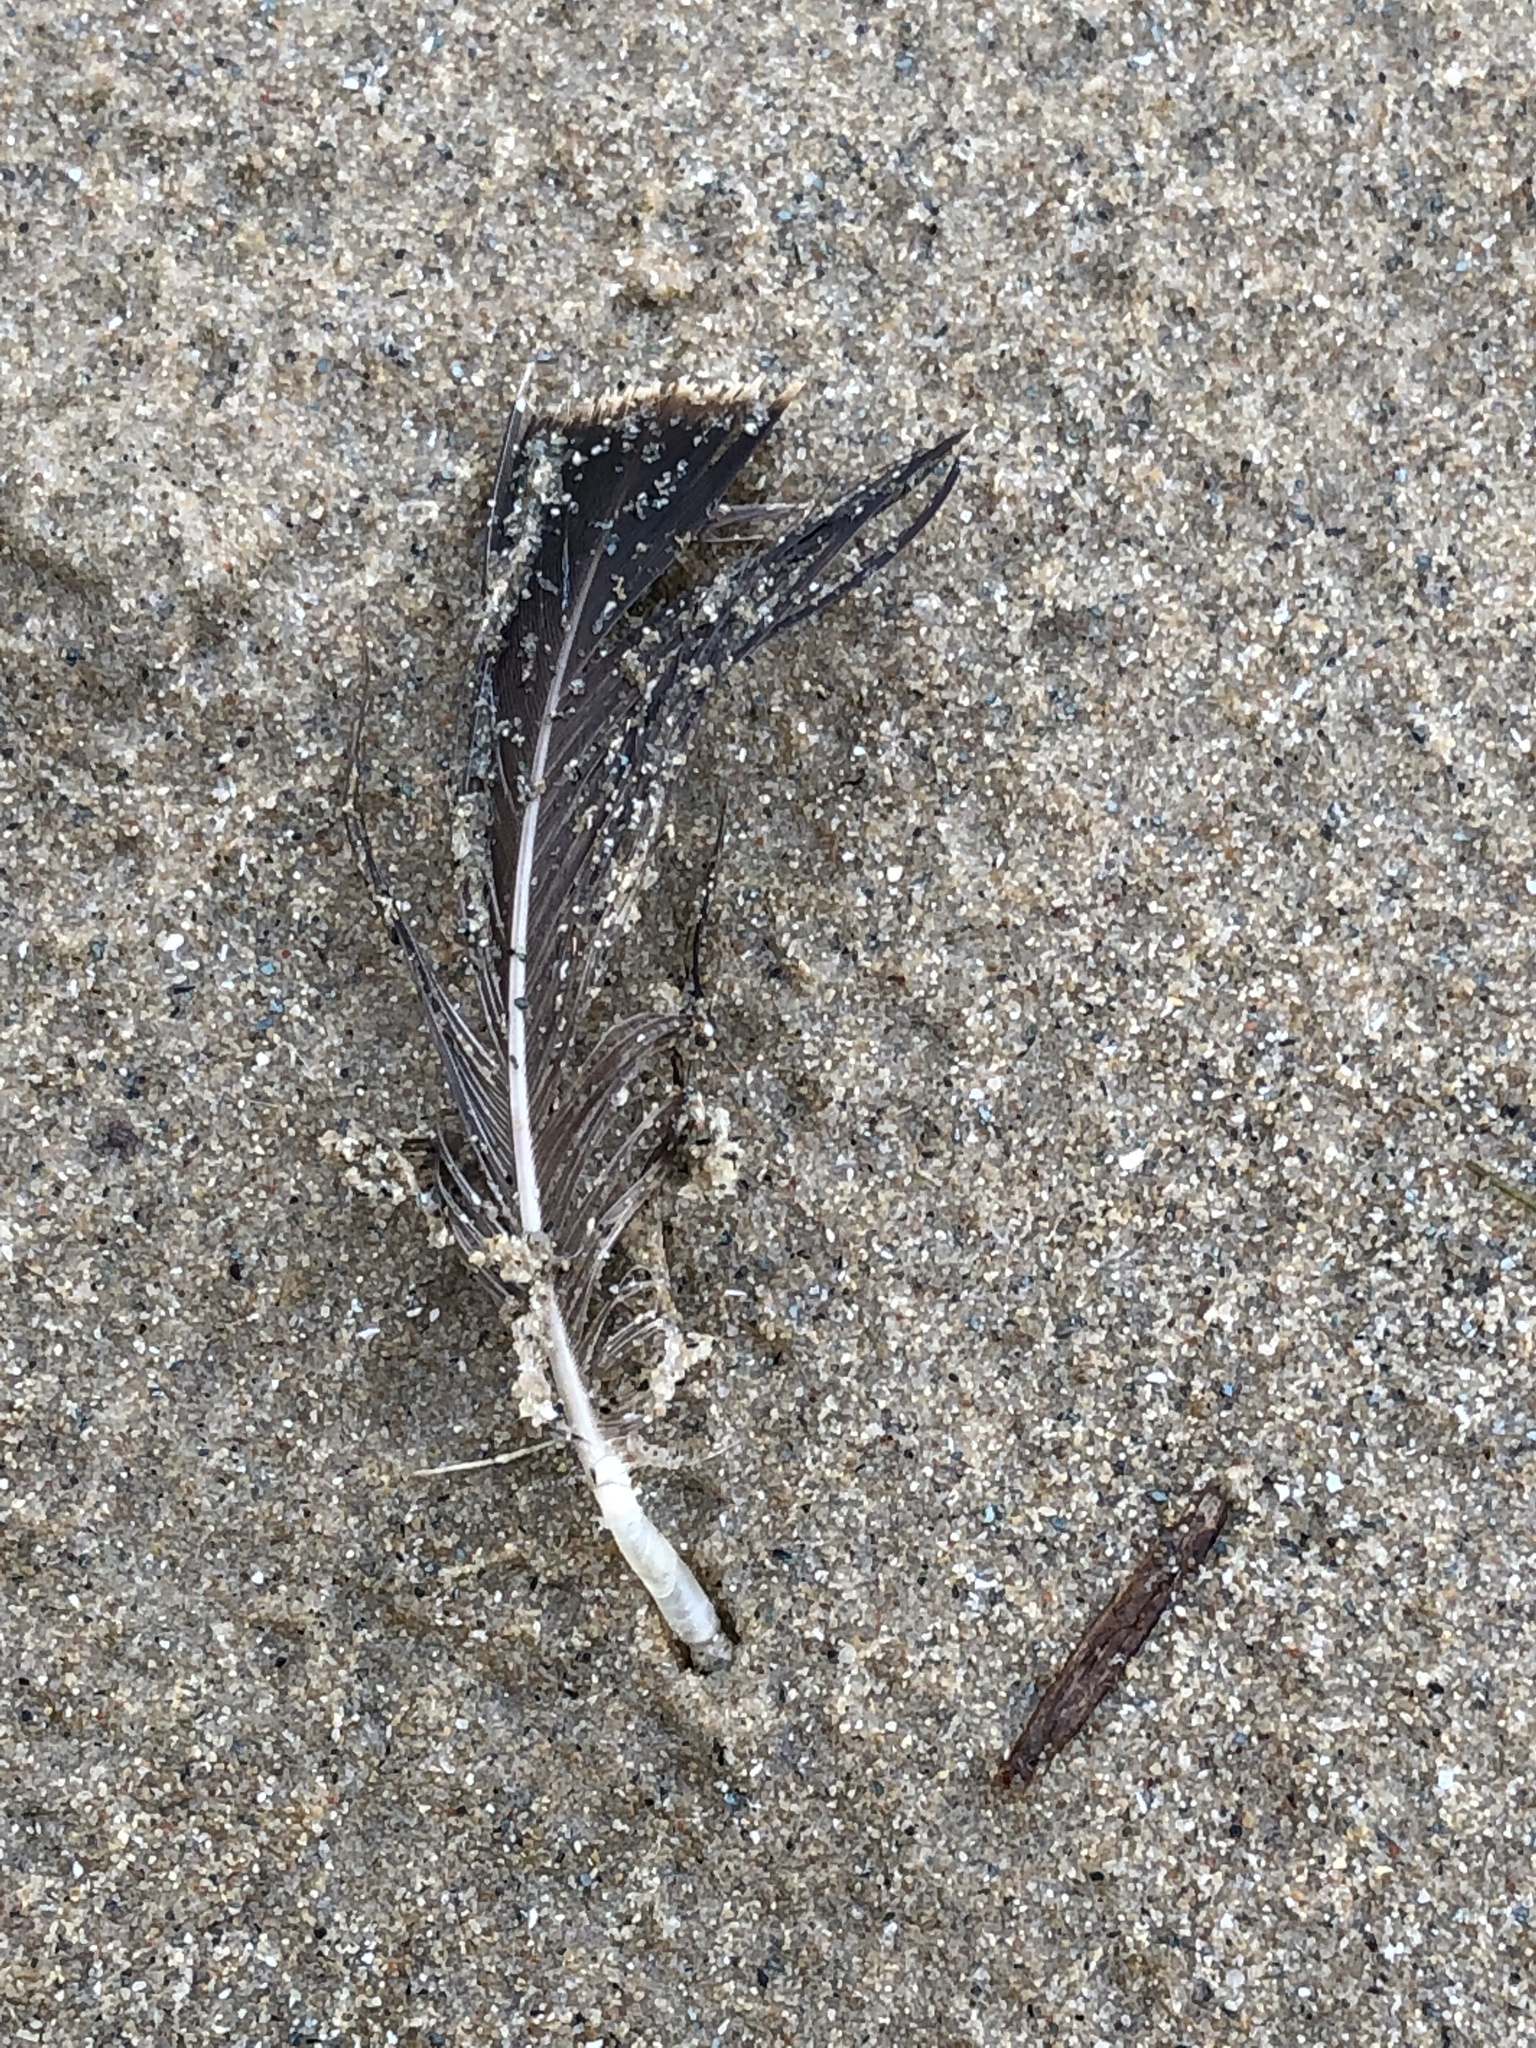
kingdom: Animalia
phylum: Chordata
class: Aves
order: Anseriformes
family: Anatidae
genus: Branta
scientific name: Branta canadensis
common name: Canada goose
